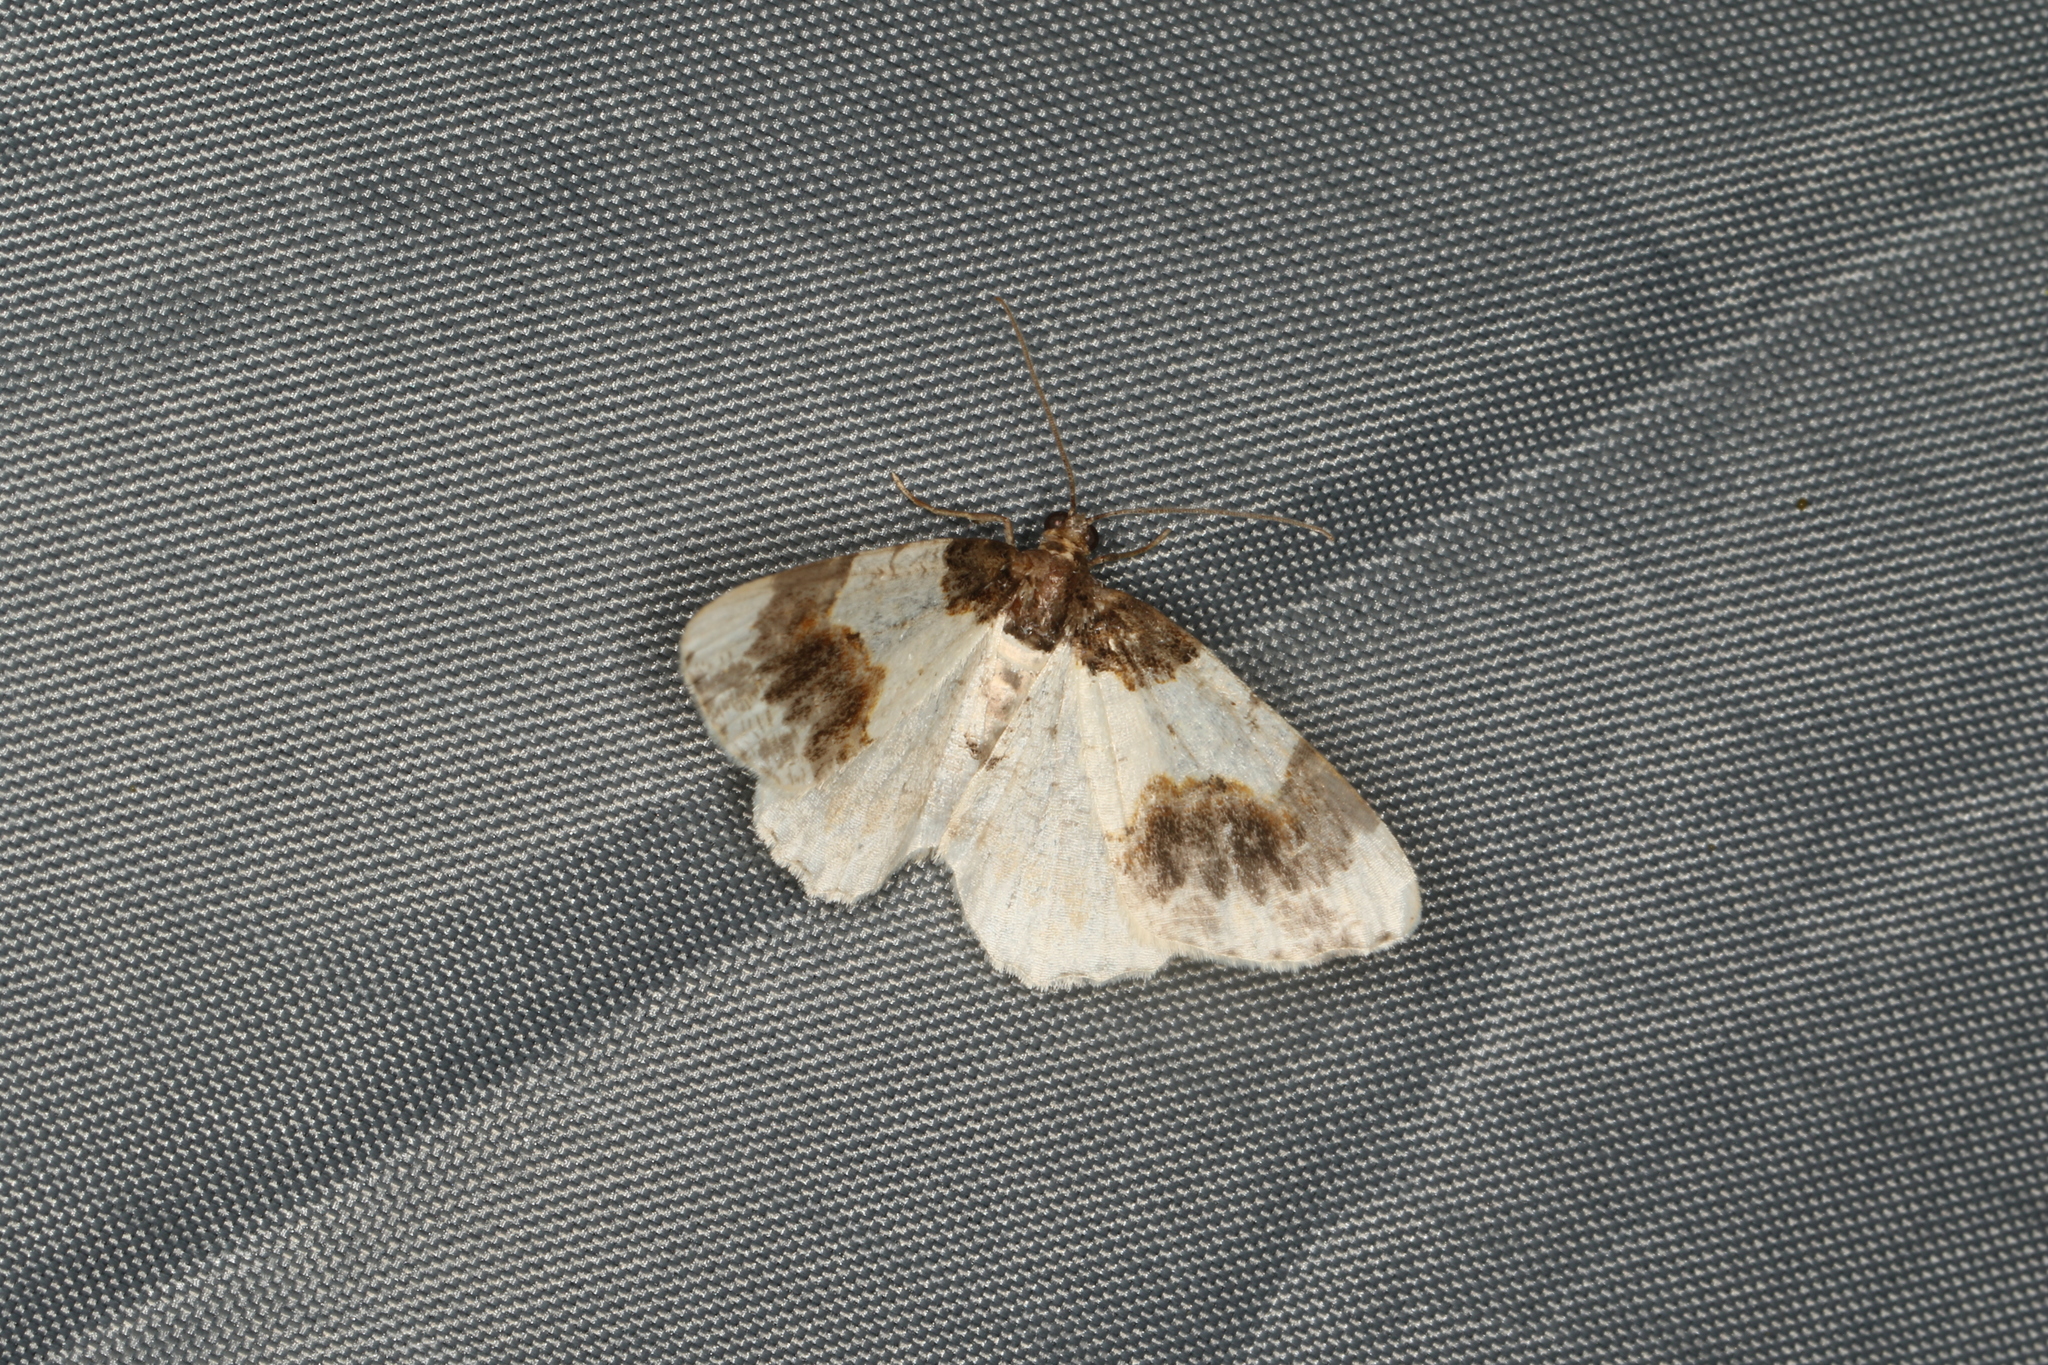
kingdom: Animalia
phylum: Arthropoda
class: Insecta
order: Lepidoptera
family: Geometridae
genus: Ligdia
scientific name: Ligdia adustata
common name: Scorched carpet
